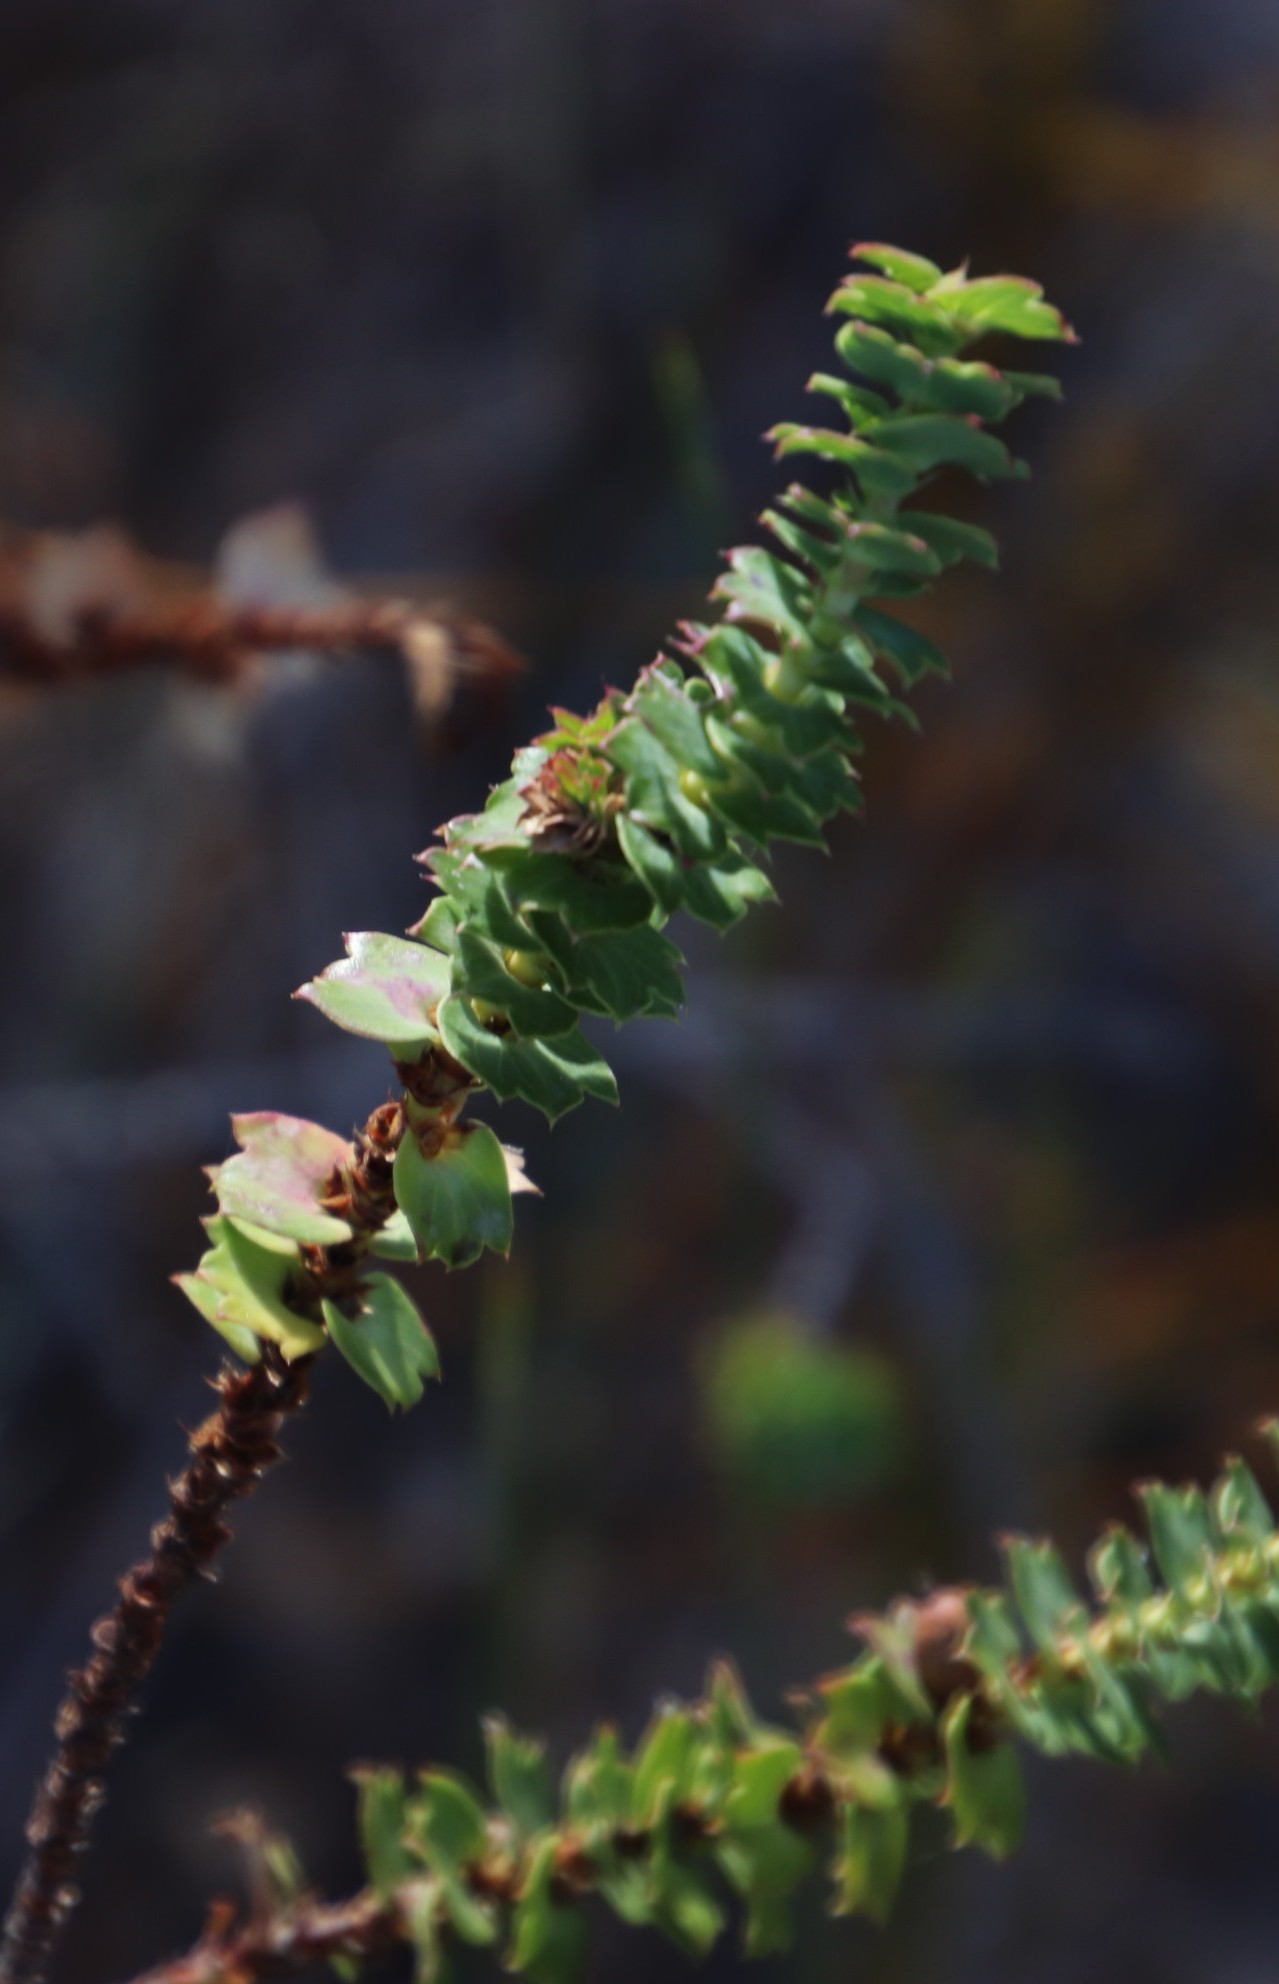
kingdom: Plantae
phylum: Tracheophyta
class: Magnoliopsida
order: Rosales
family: Rosaceae
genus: Cliffortia
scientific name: Cliffortia schlechteri
